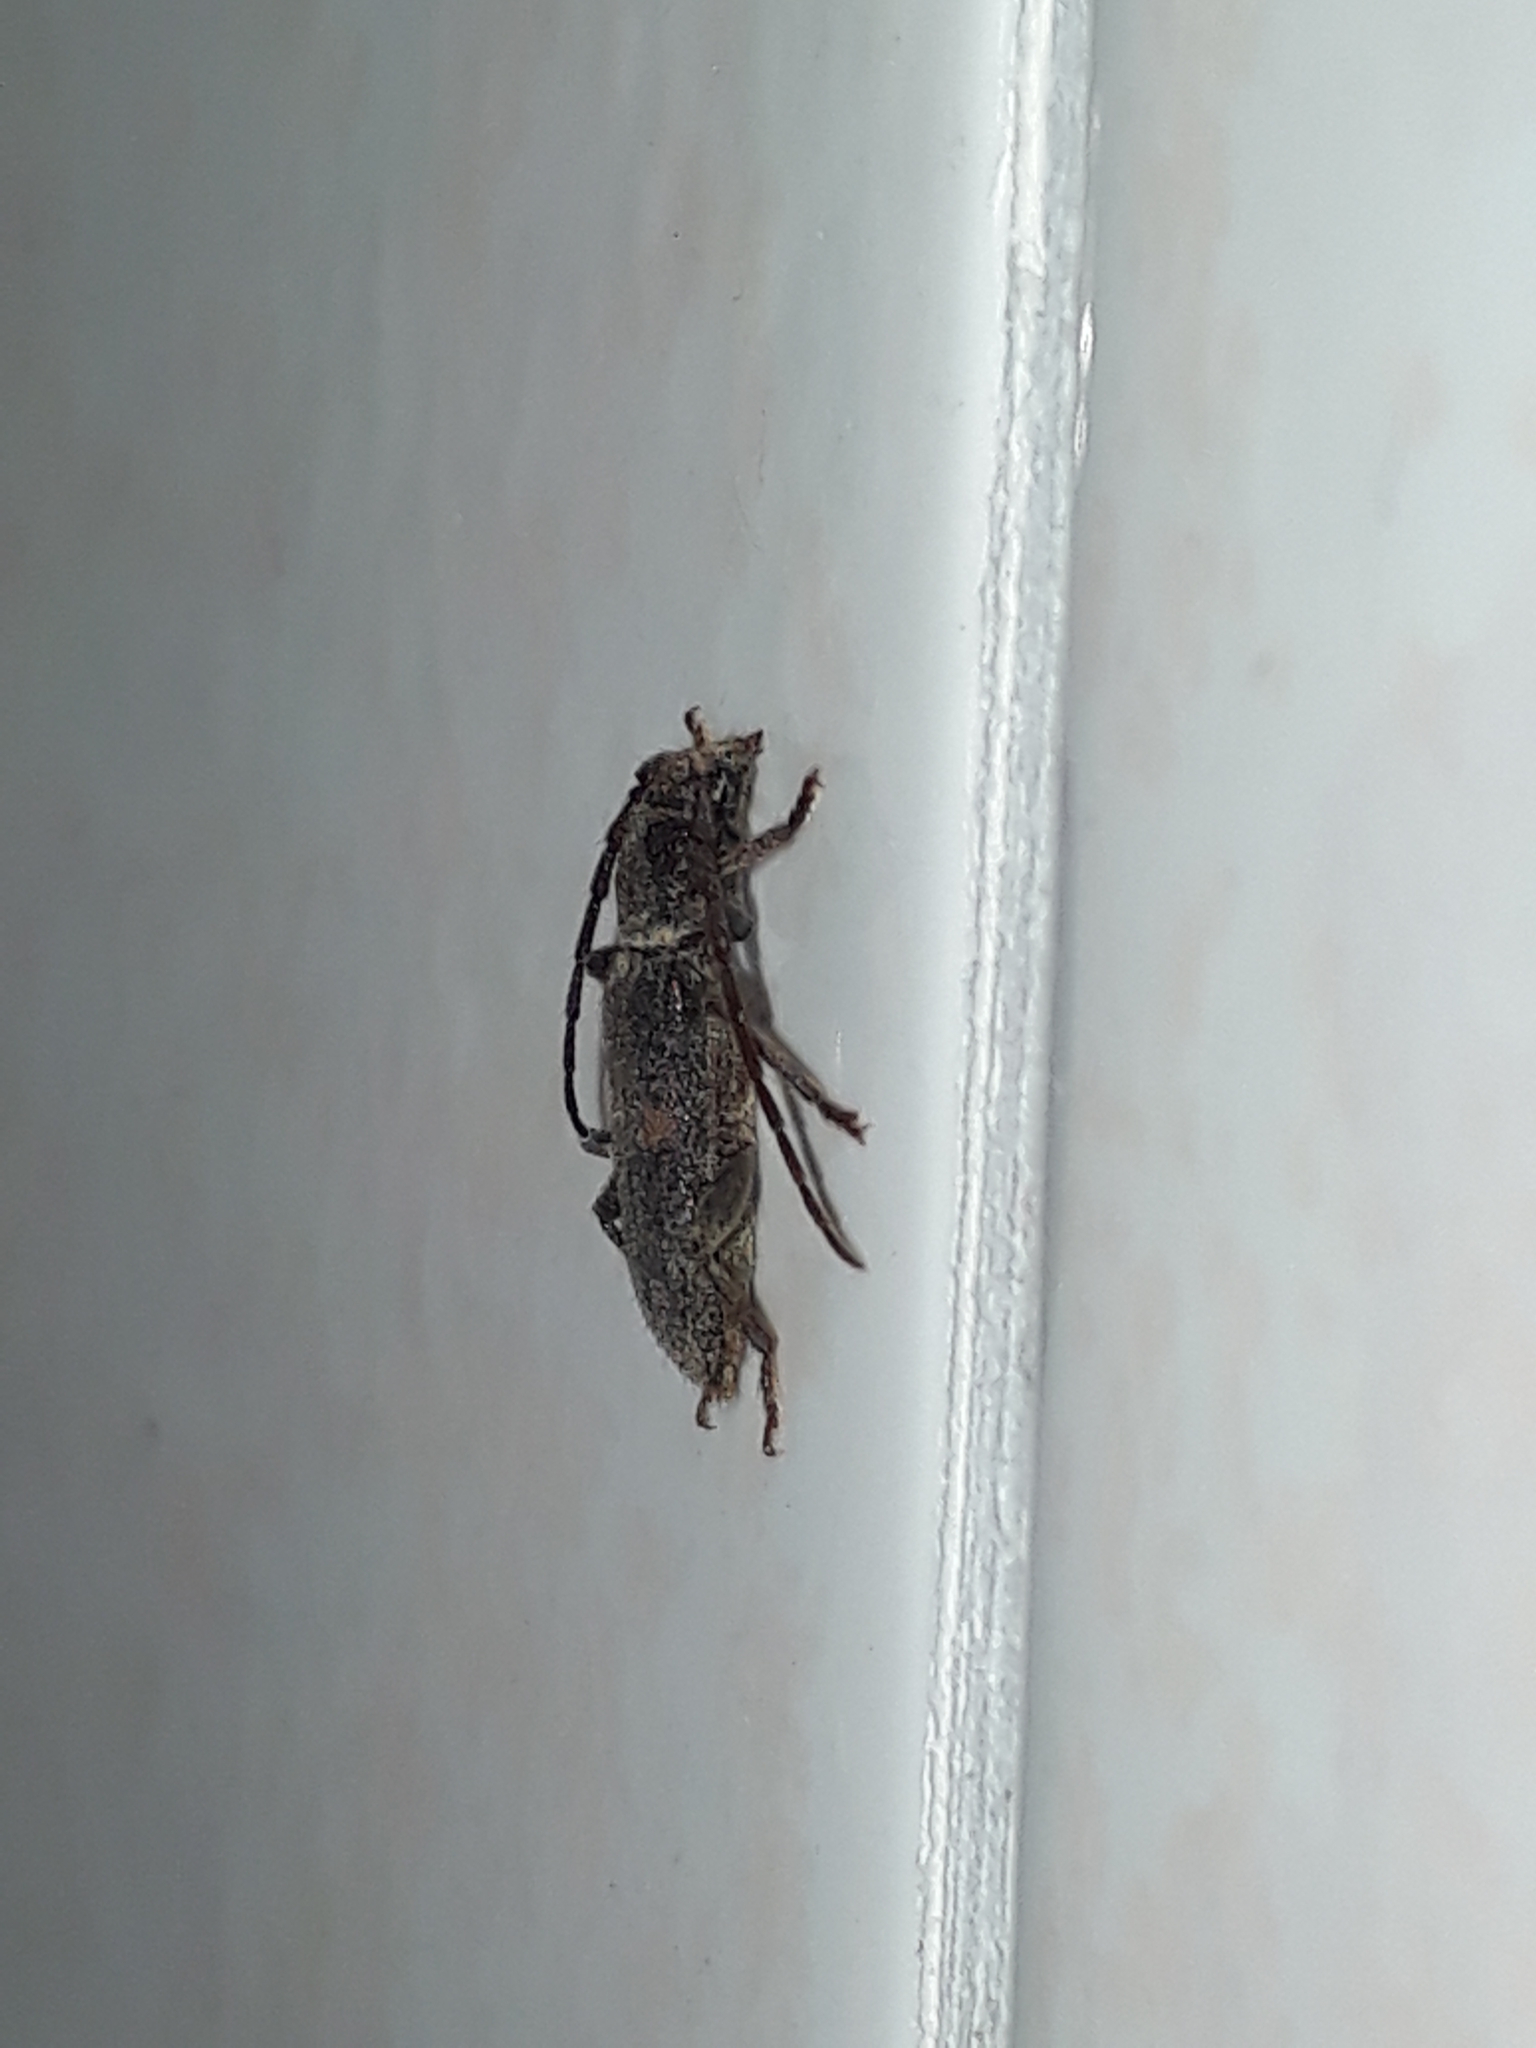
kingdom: Animalia
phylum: Arthropoda
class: Insecta
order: Coleoptera
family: Cerambycidae
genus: Zamium
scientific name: Zamium bimaculatum
